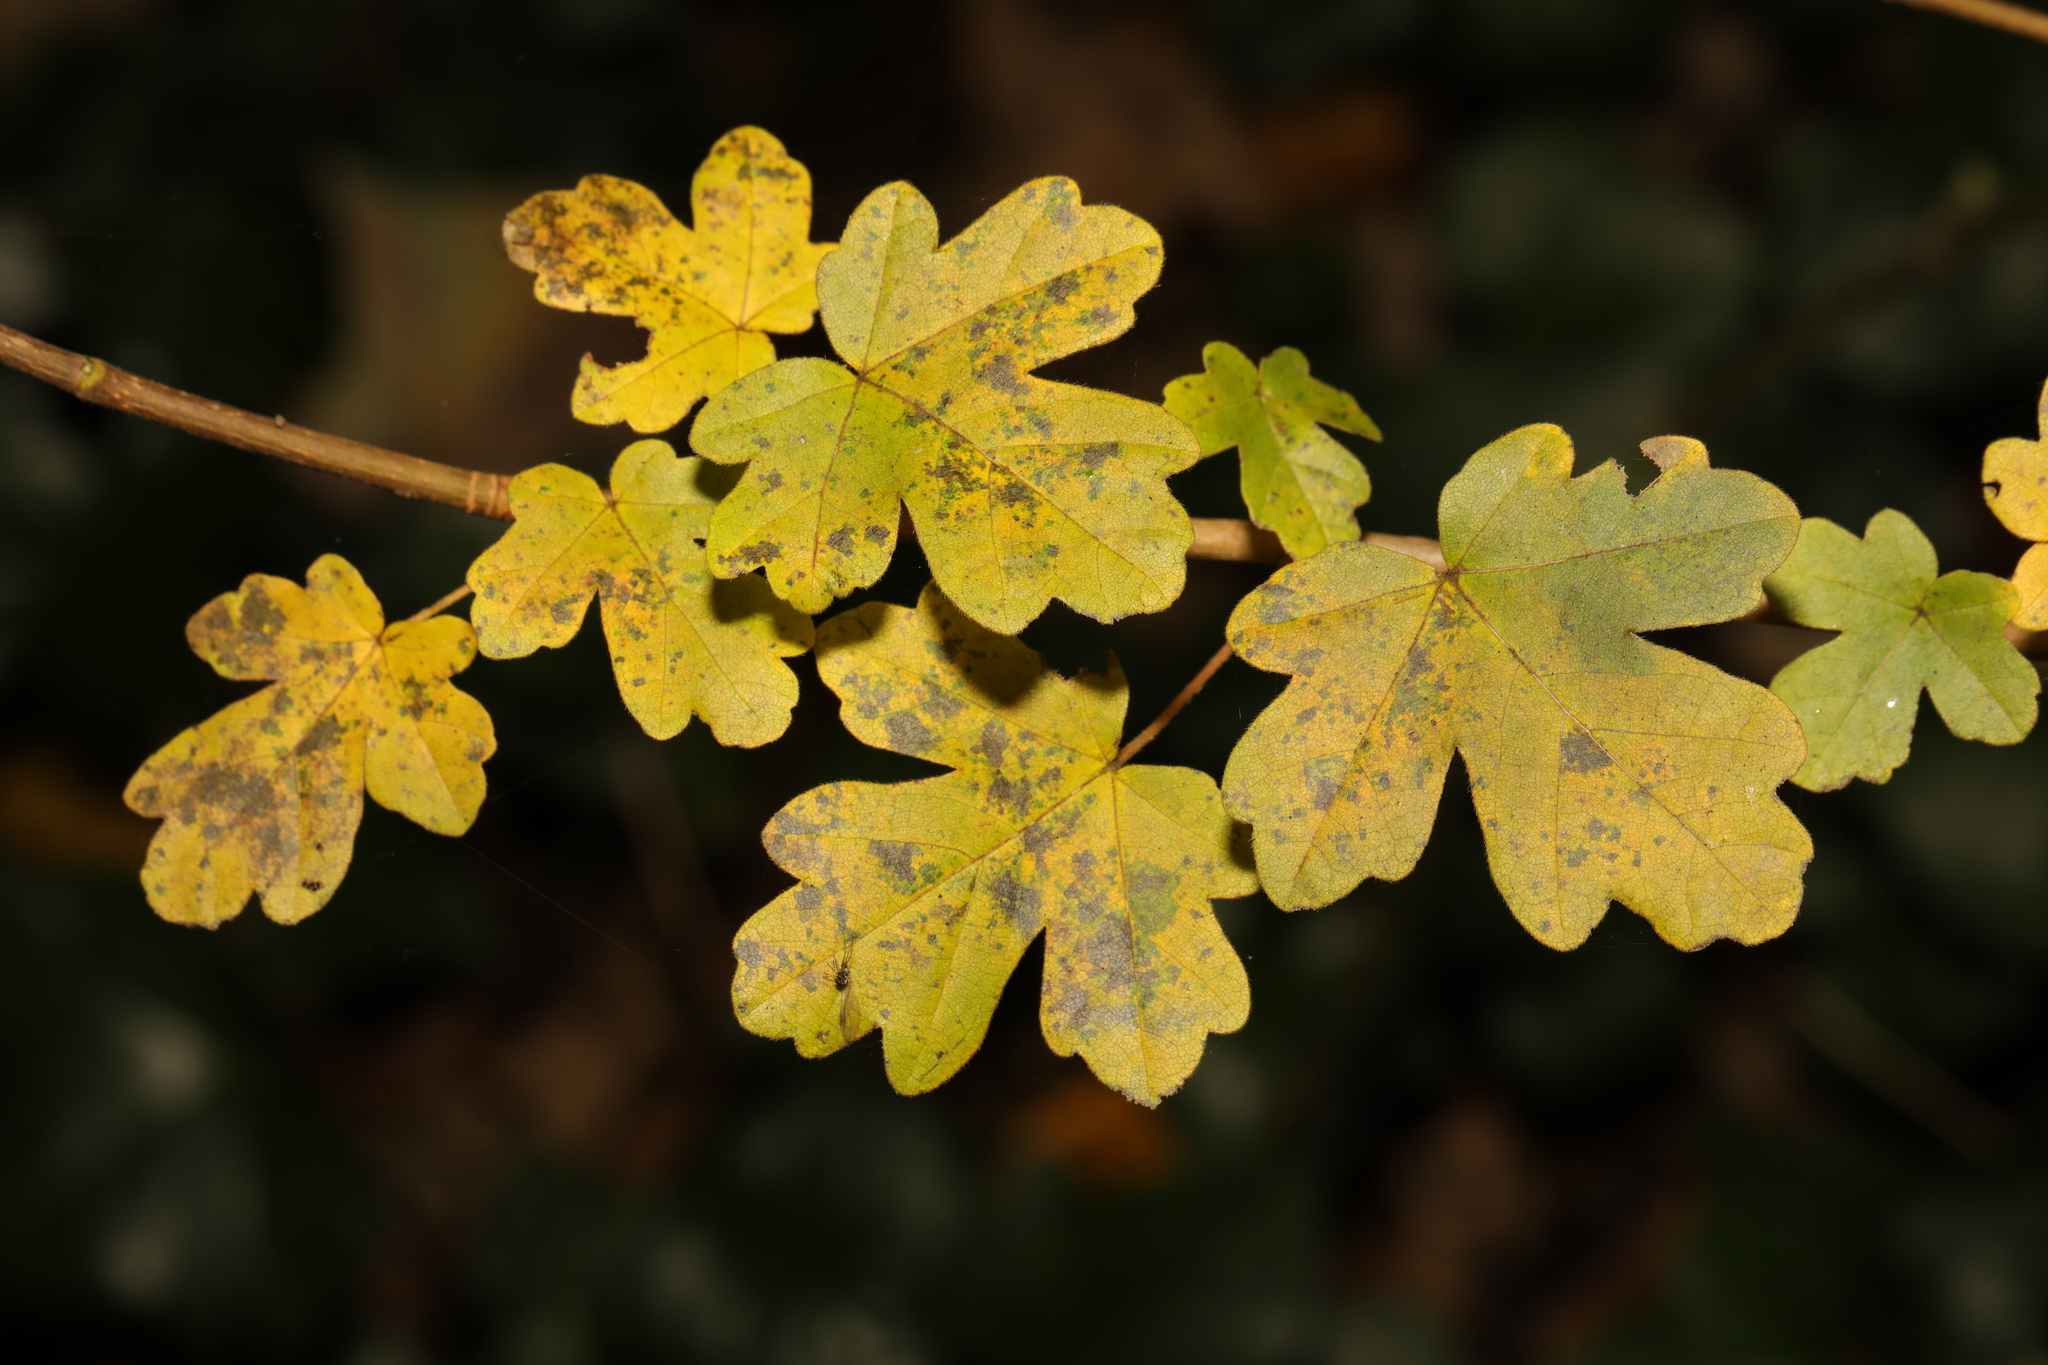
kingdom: Plantae
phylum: Tracheophyta
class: Magnoliopsida
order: Sapindales
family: Sapindaceae
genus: Acer
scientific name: Acer campestre
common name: Field maple
